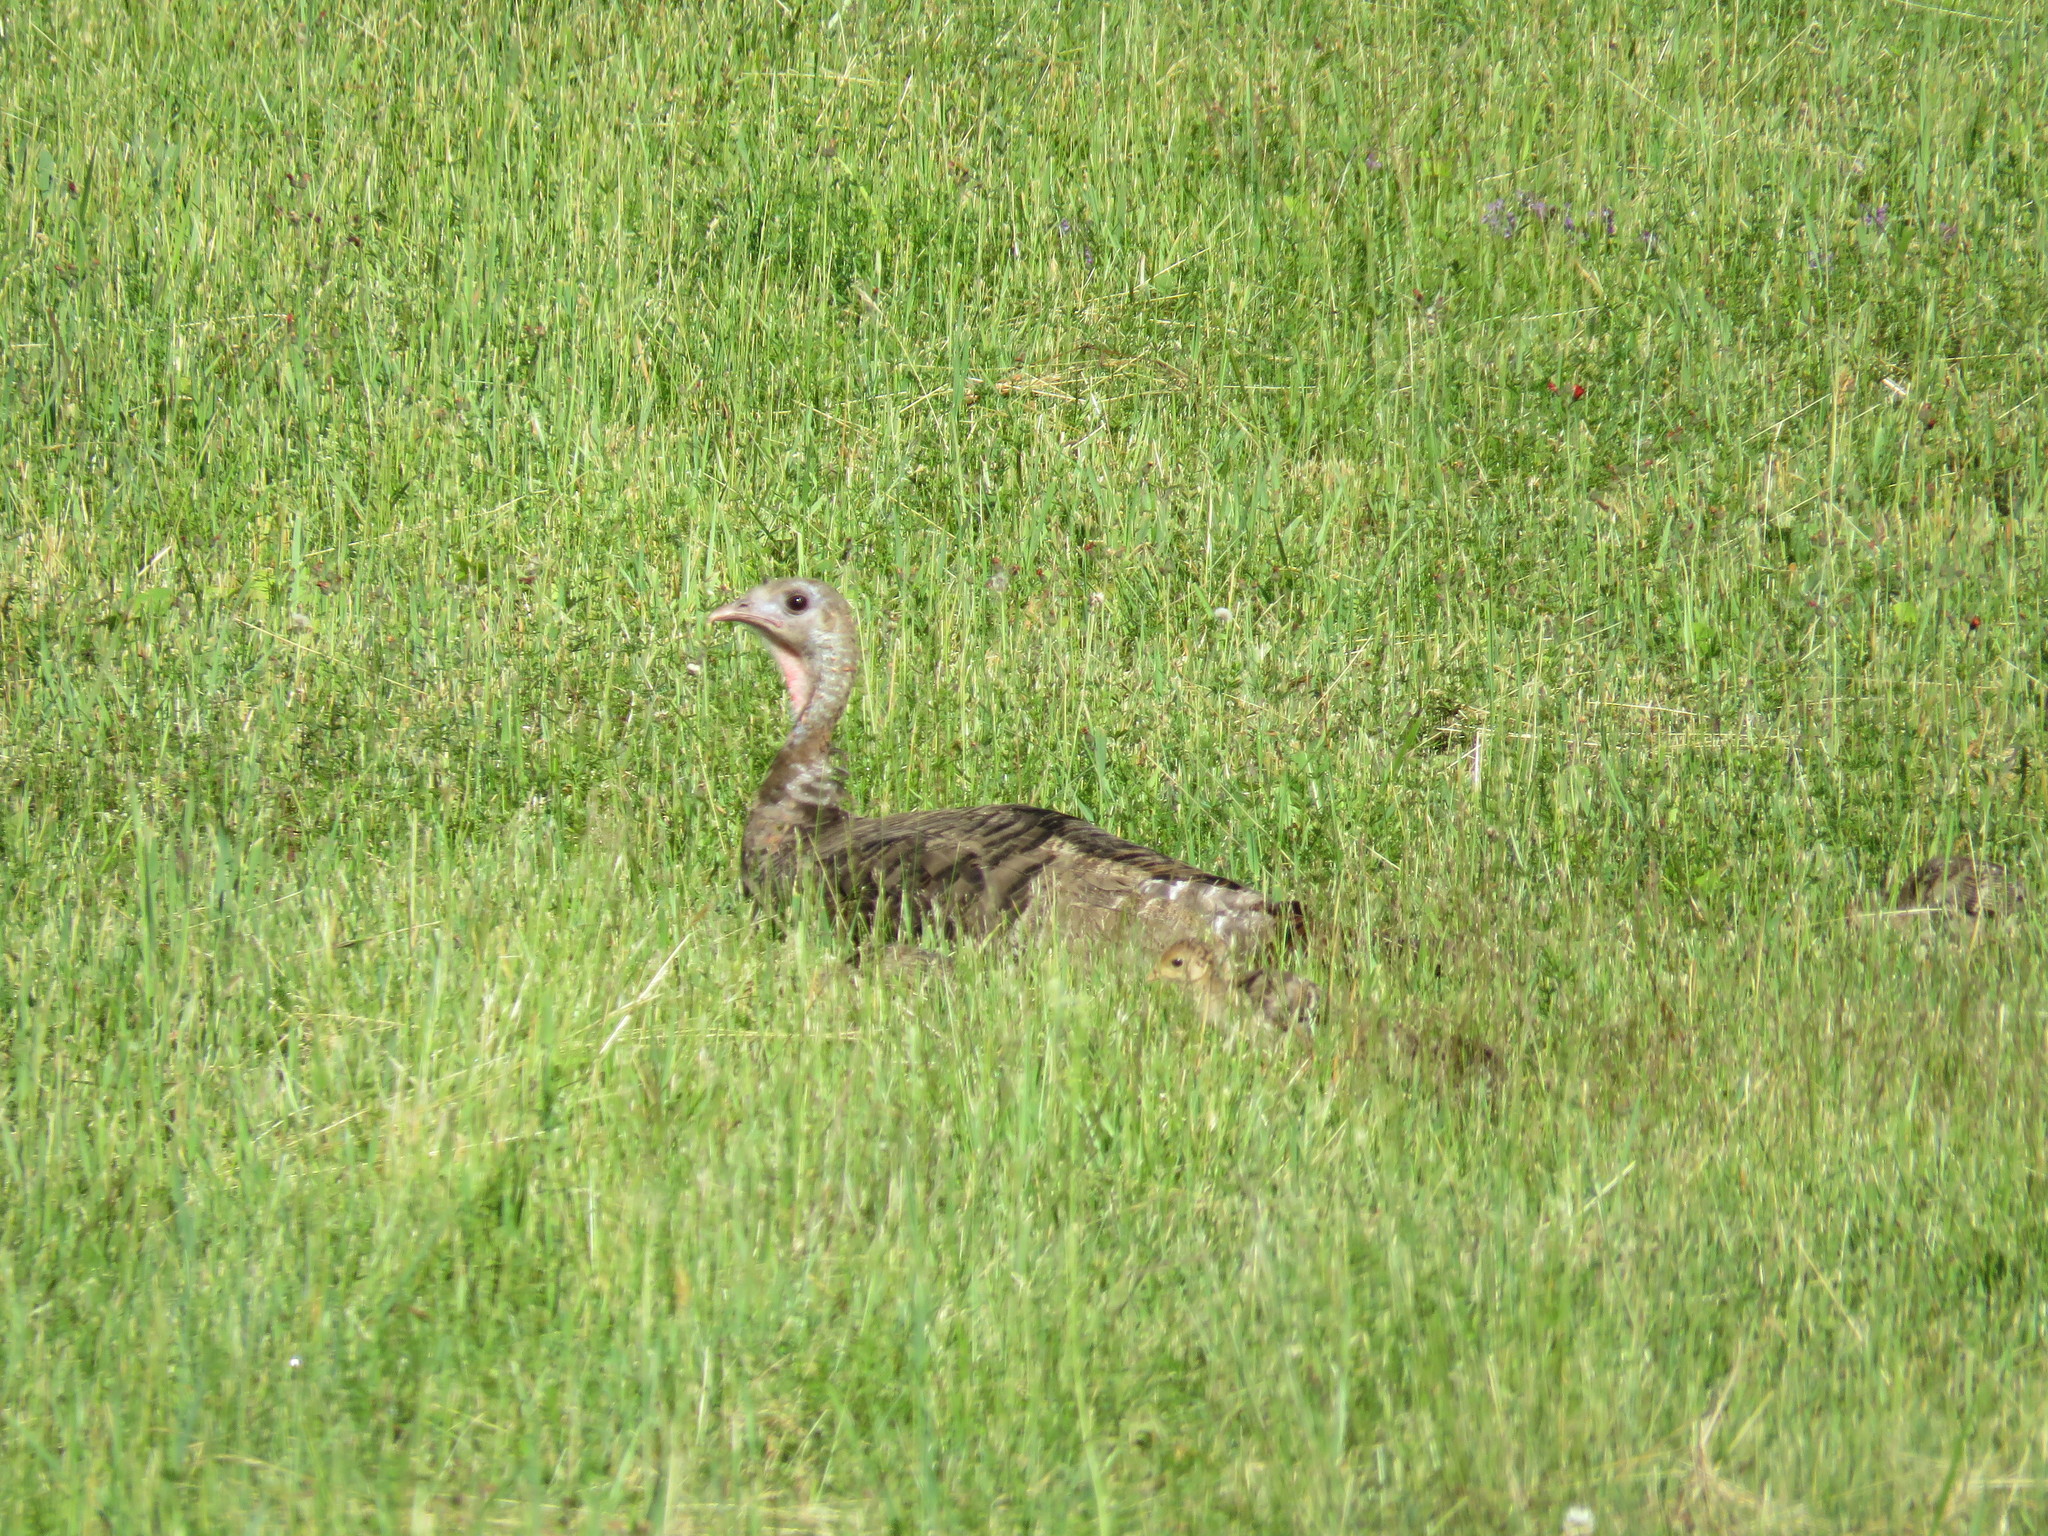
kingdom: Animalia
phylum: Chordata
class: Aves
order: Galliformes
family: Phasianidae
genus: Meleagris
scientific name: Meleagris gallopavo
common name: Wild turkey
